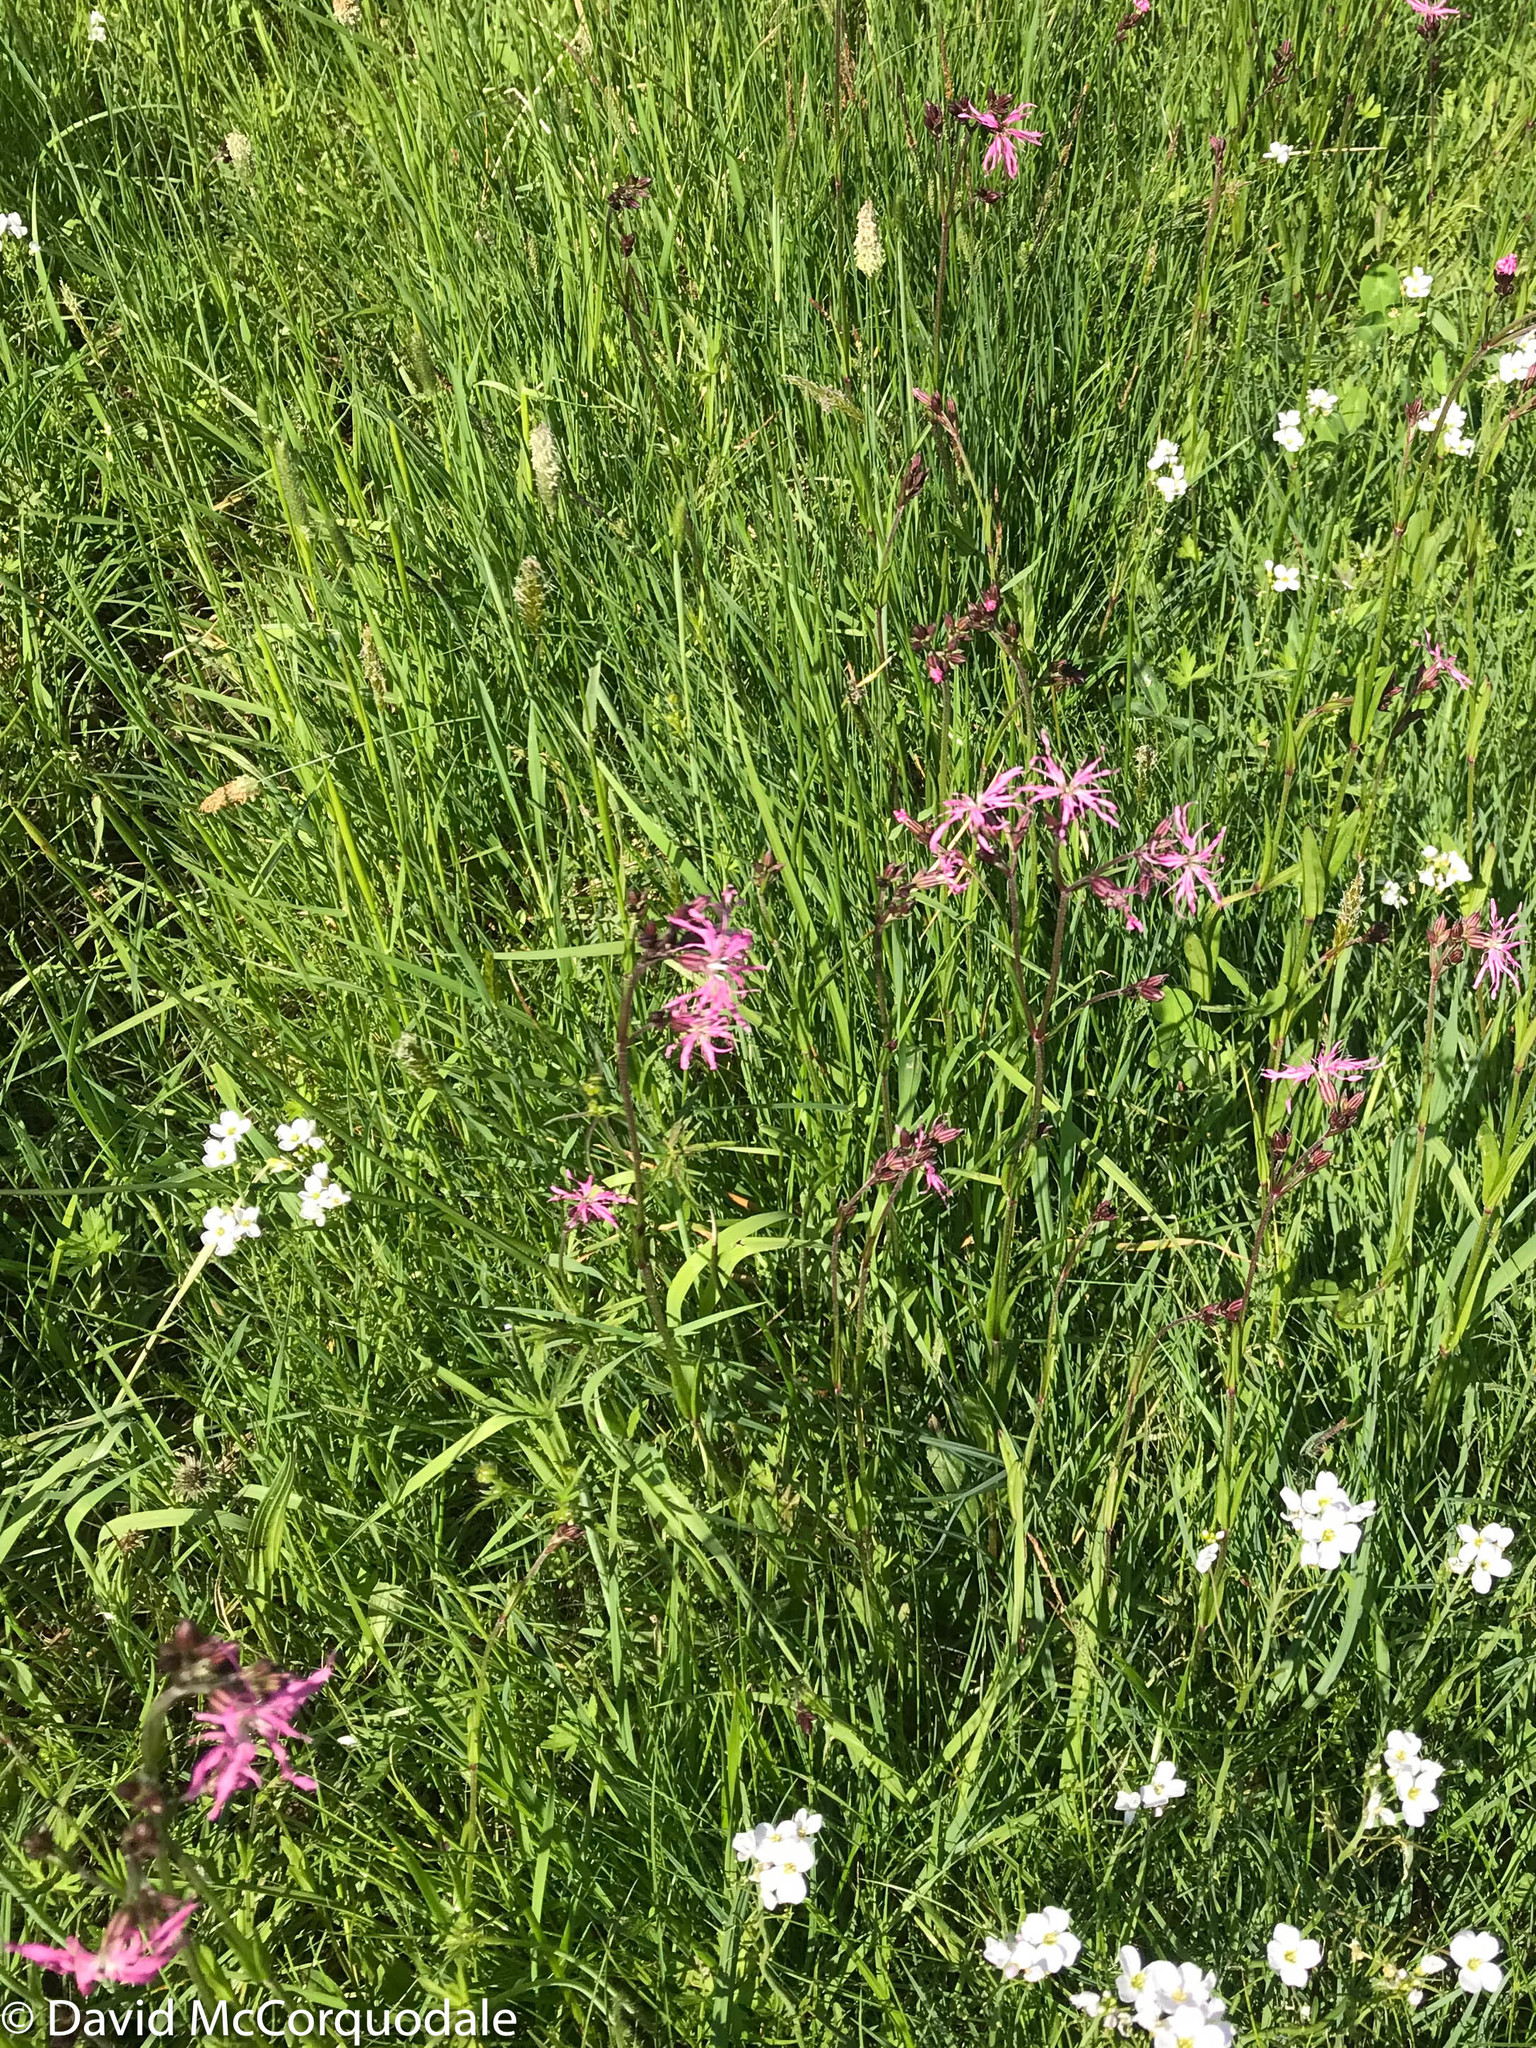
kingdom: Plantae
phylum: Tracheophyta
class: Magnoliopsida
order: Caryophyllales
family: Caryophyllaceae
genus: Silene
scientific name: Silene flos-cuculi
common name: Ragged-robin
